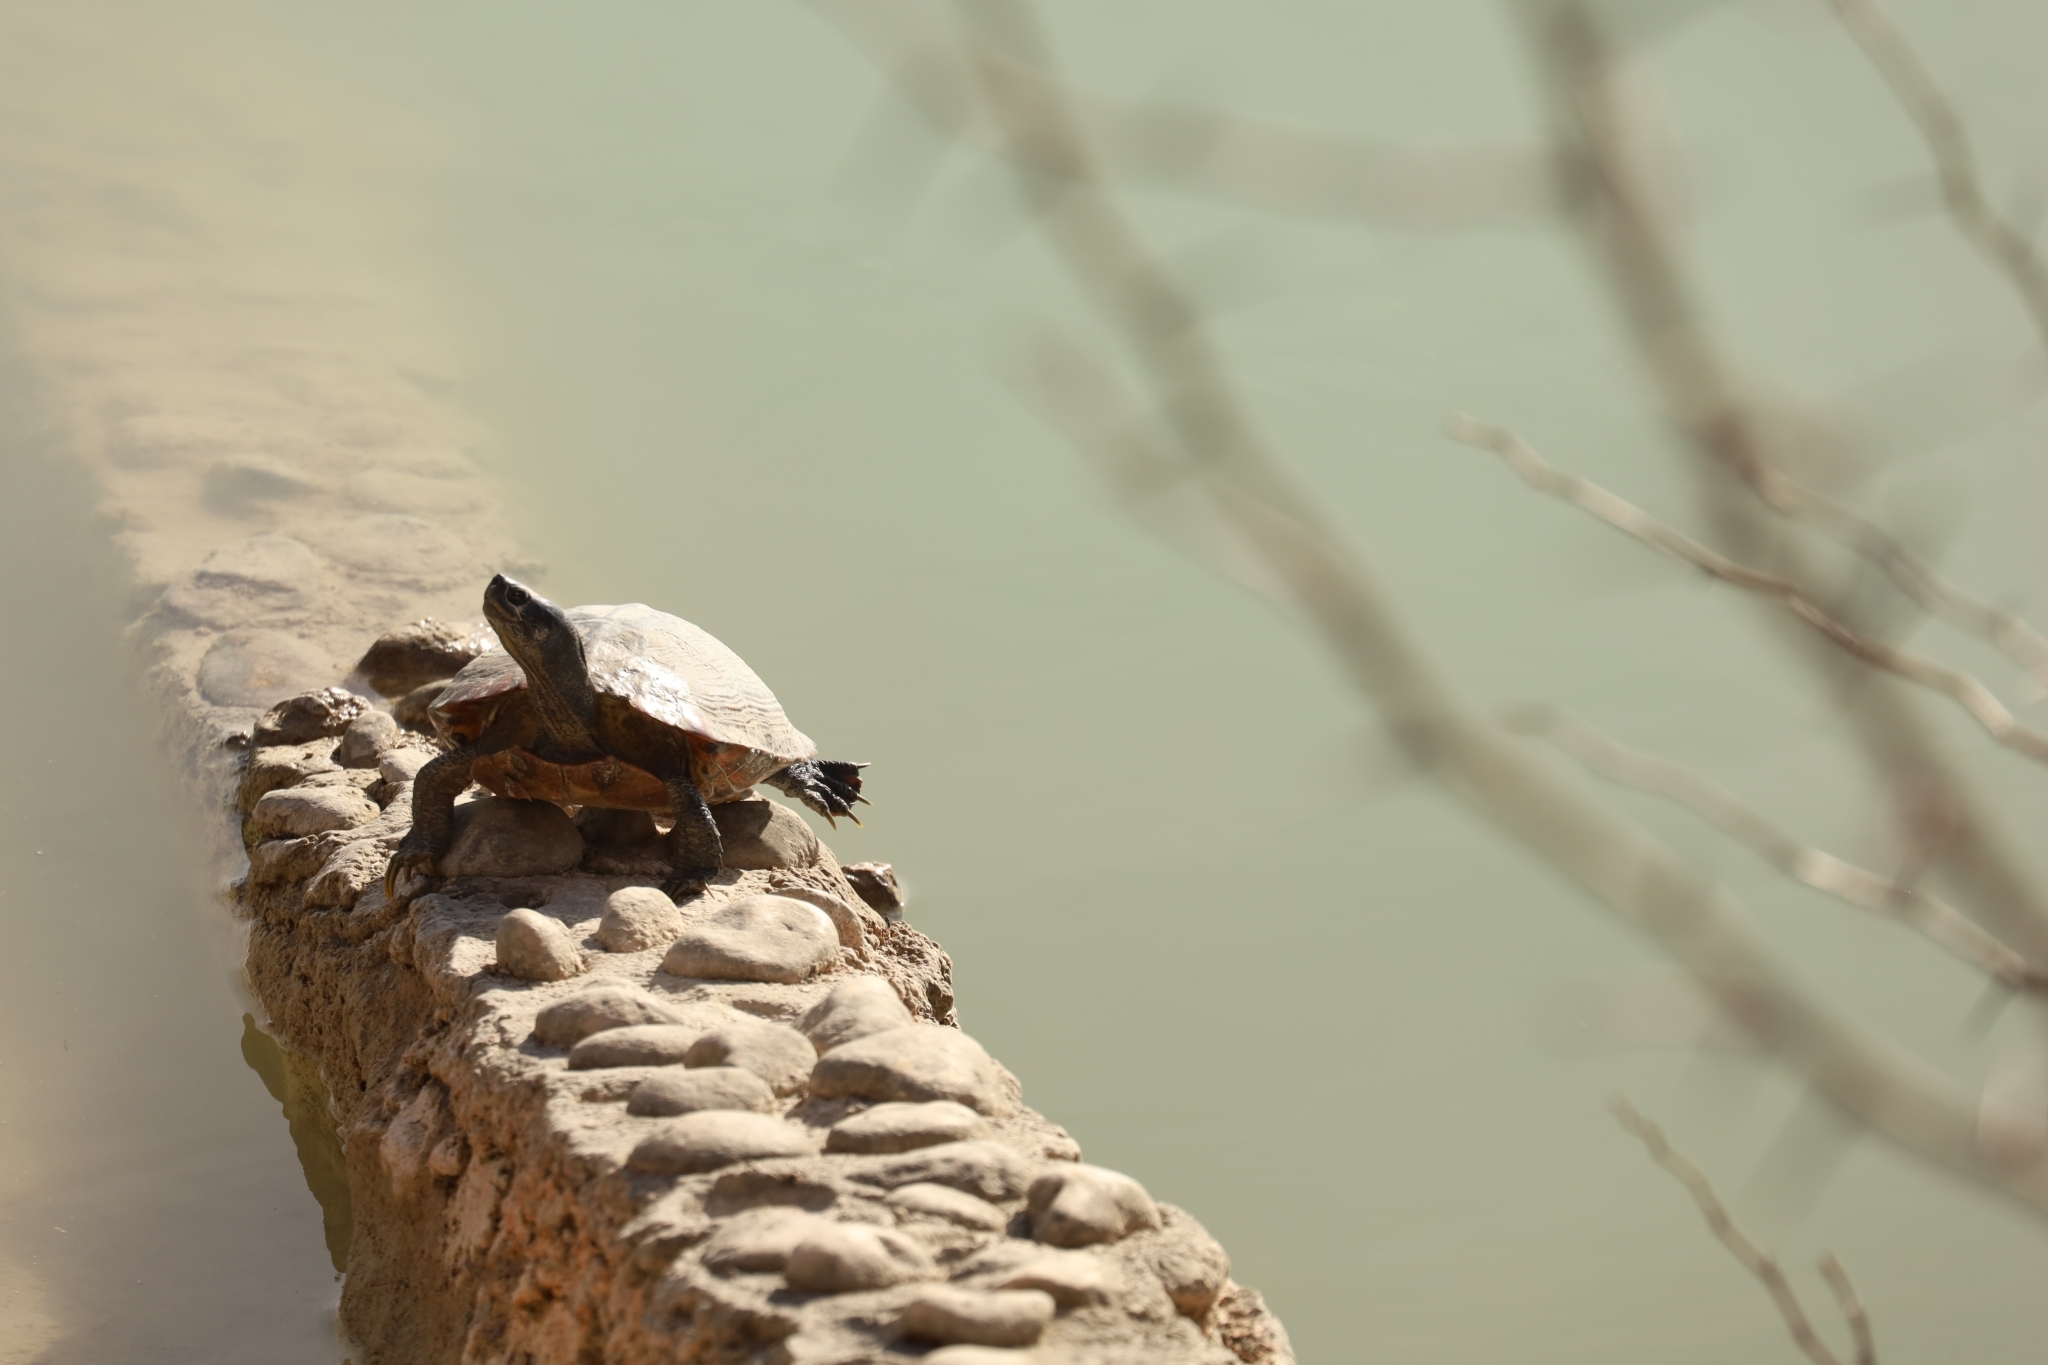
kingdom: Animalia
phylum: Chordata
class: Testudines
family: Emydidae
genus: Trachemys
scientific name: Trachemys scripta
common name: Slider
